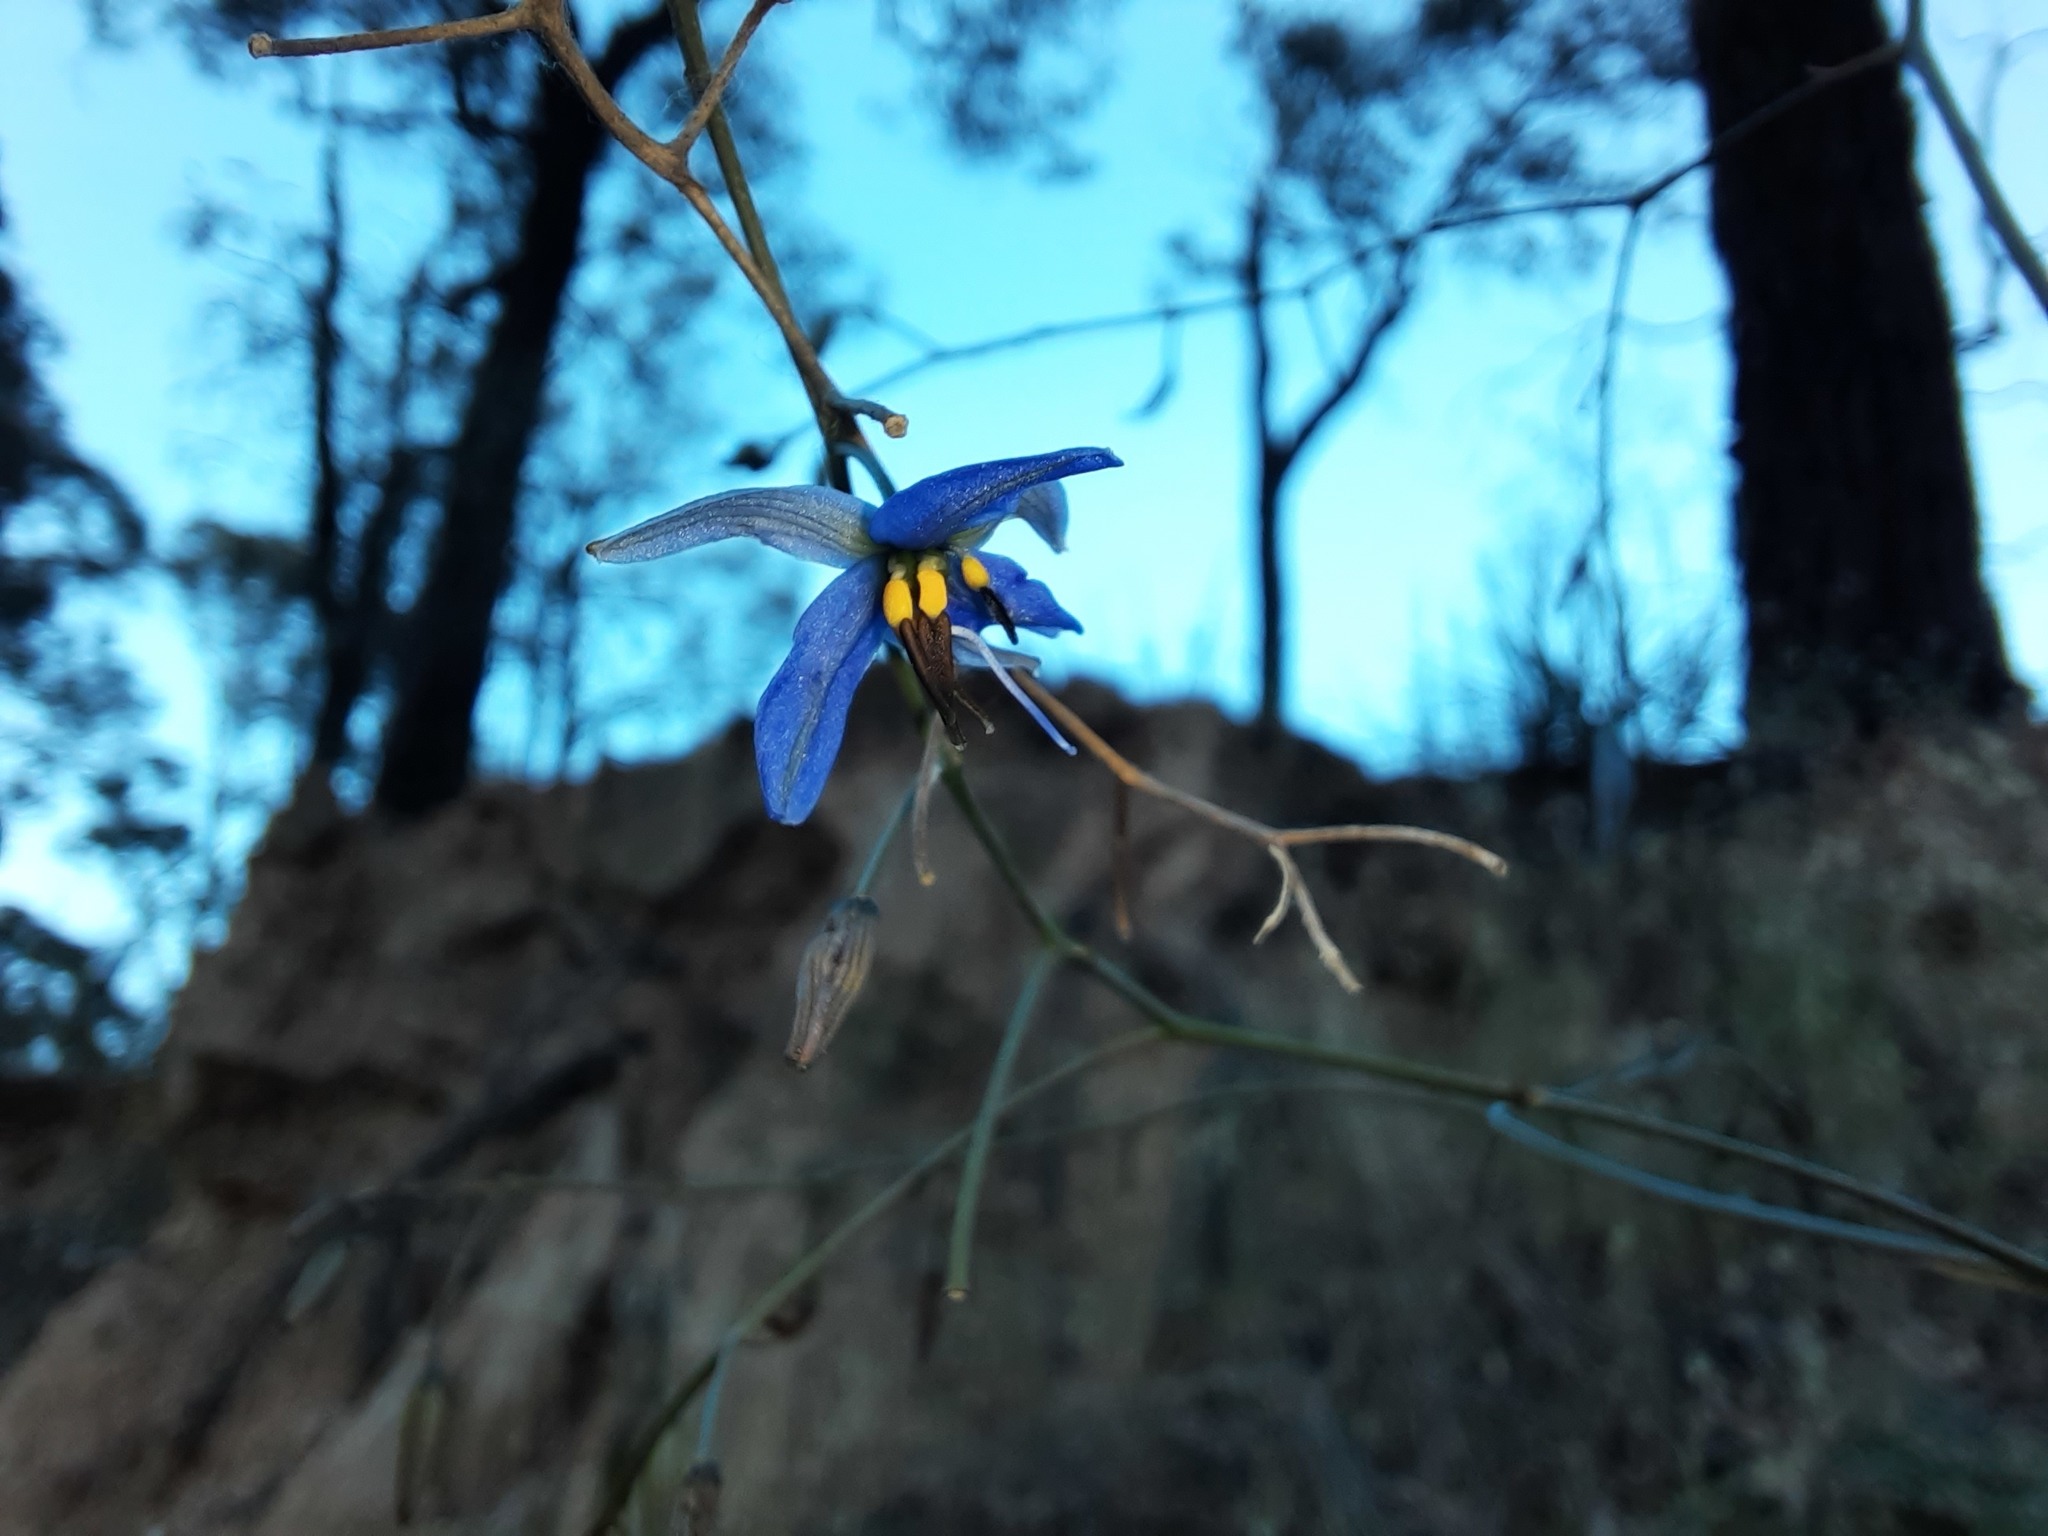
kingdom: Plantae
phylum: Tracheophyta
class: Liliopsida
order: Asparagales
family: Asphodelaceae
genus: Dianella
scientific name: Dianella revoluta
